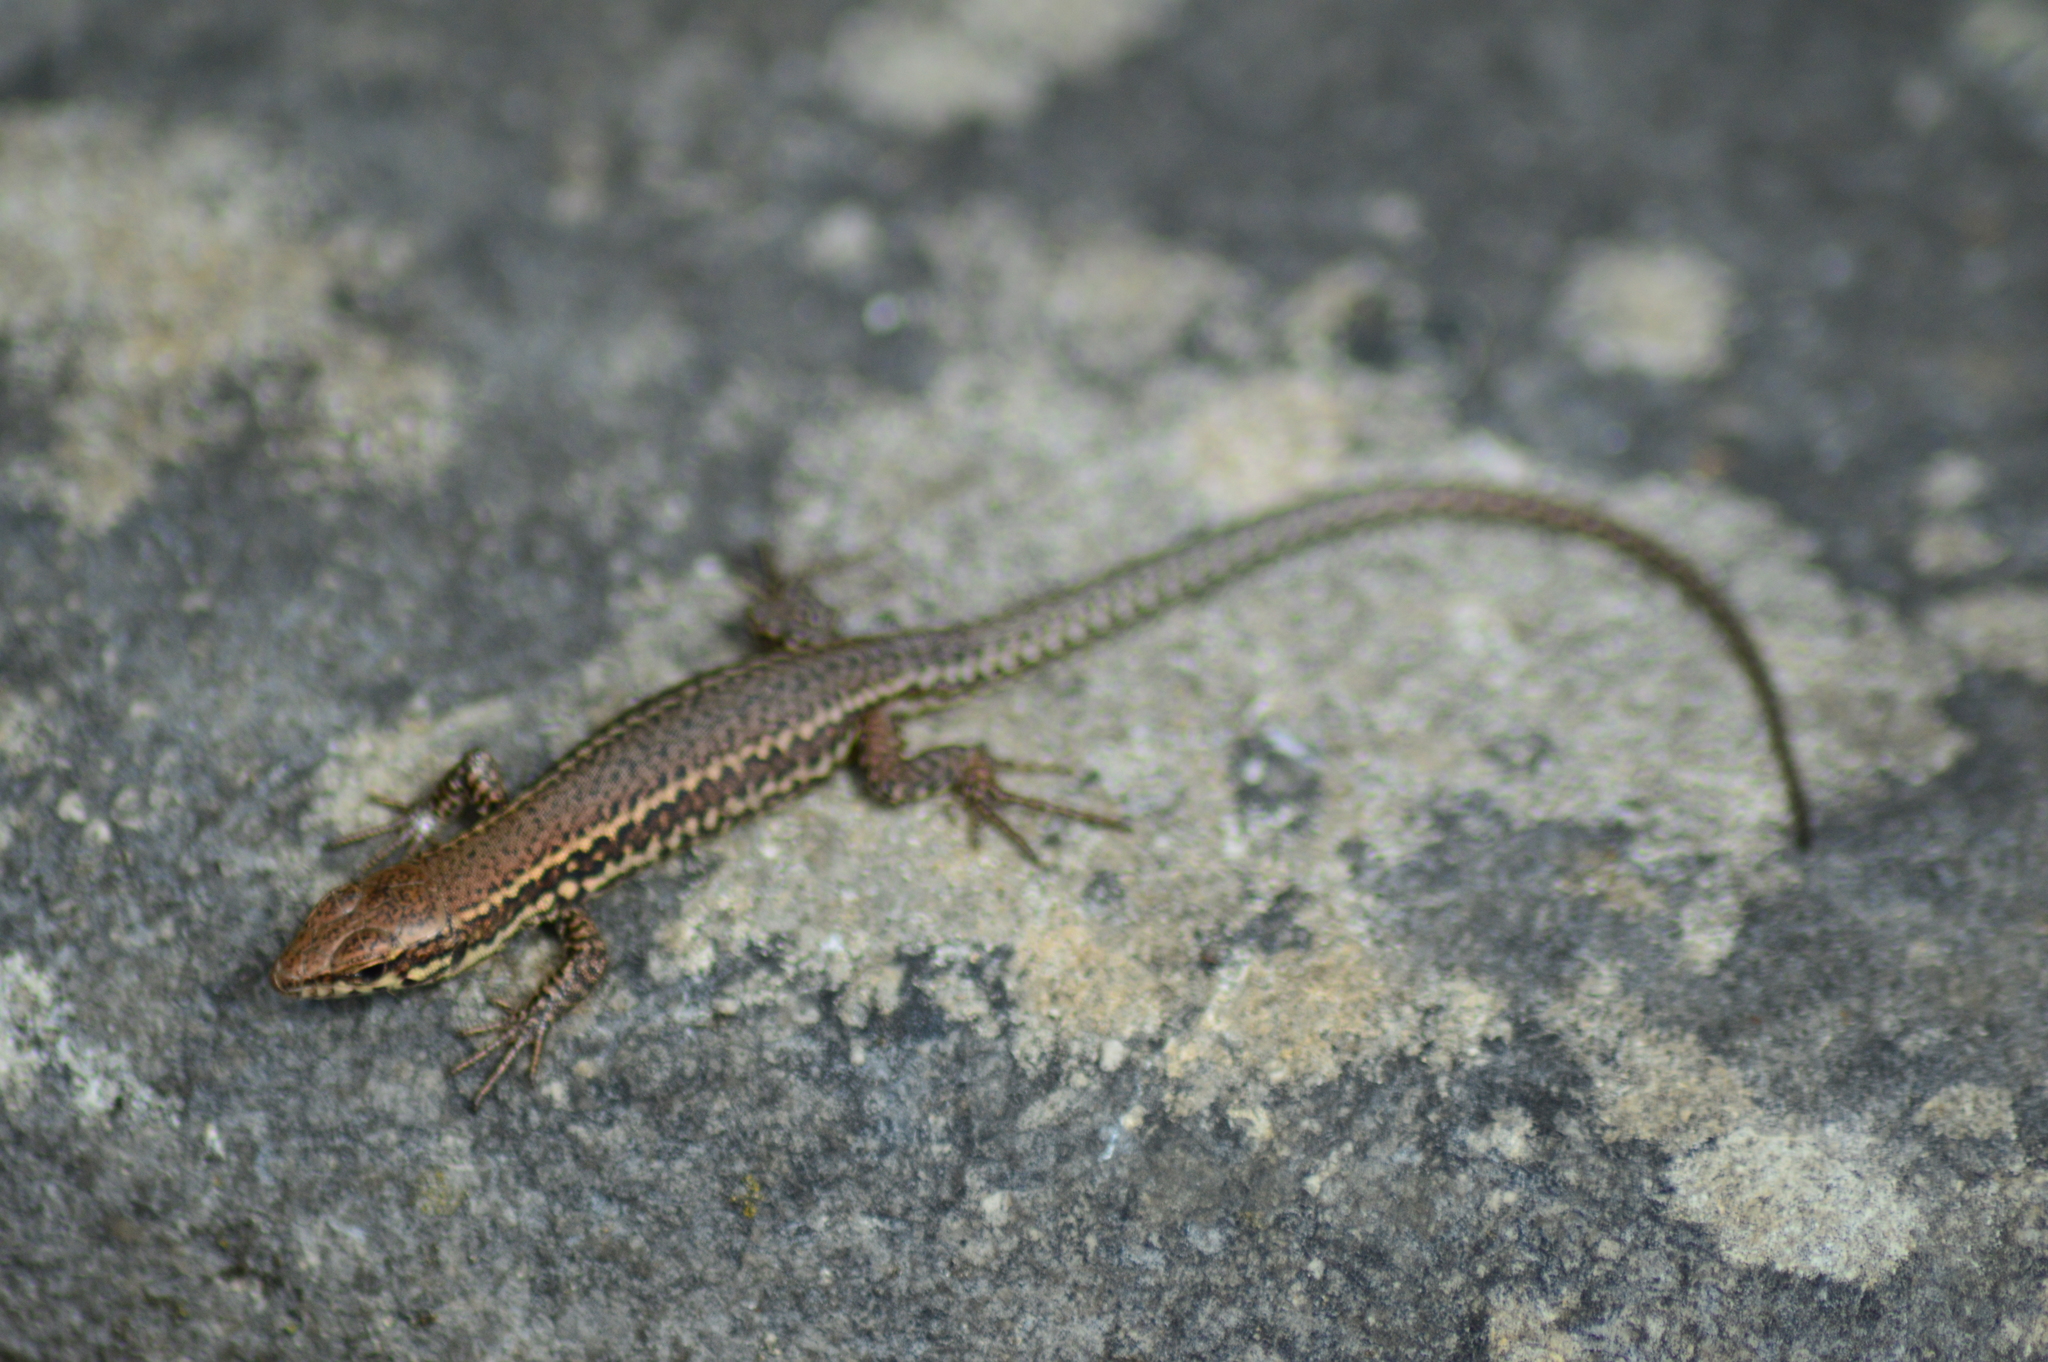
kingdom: Animalia
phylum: Chordata
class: Squamata
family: Lacertidae
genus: Podarcis
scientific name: Podarcis muralis
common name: Common wall lizard
